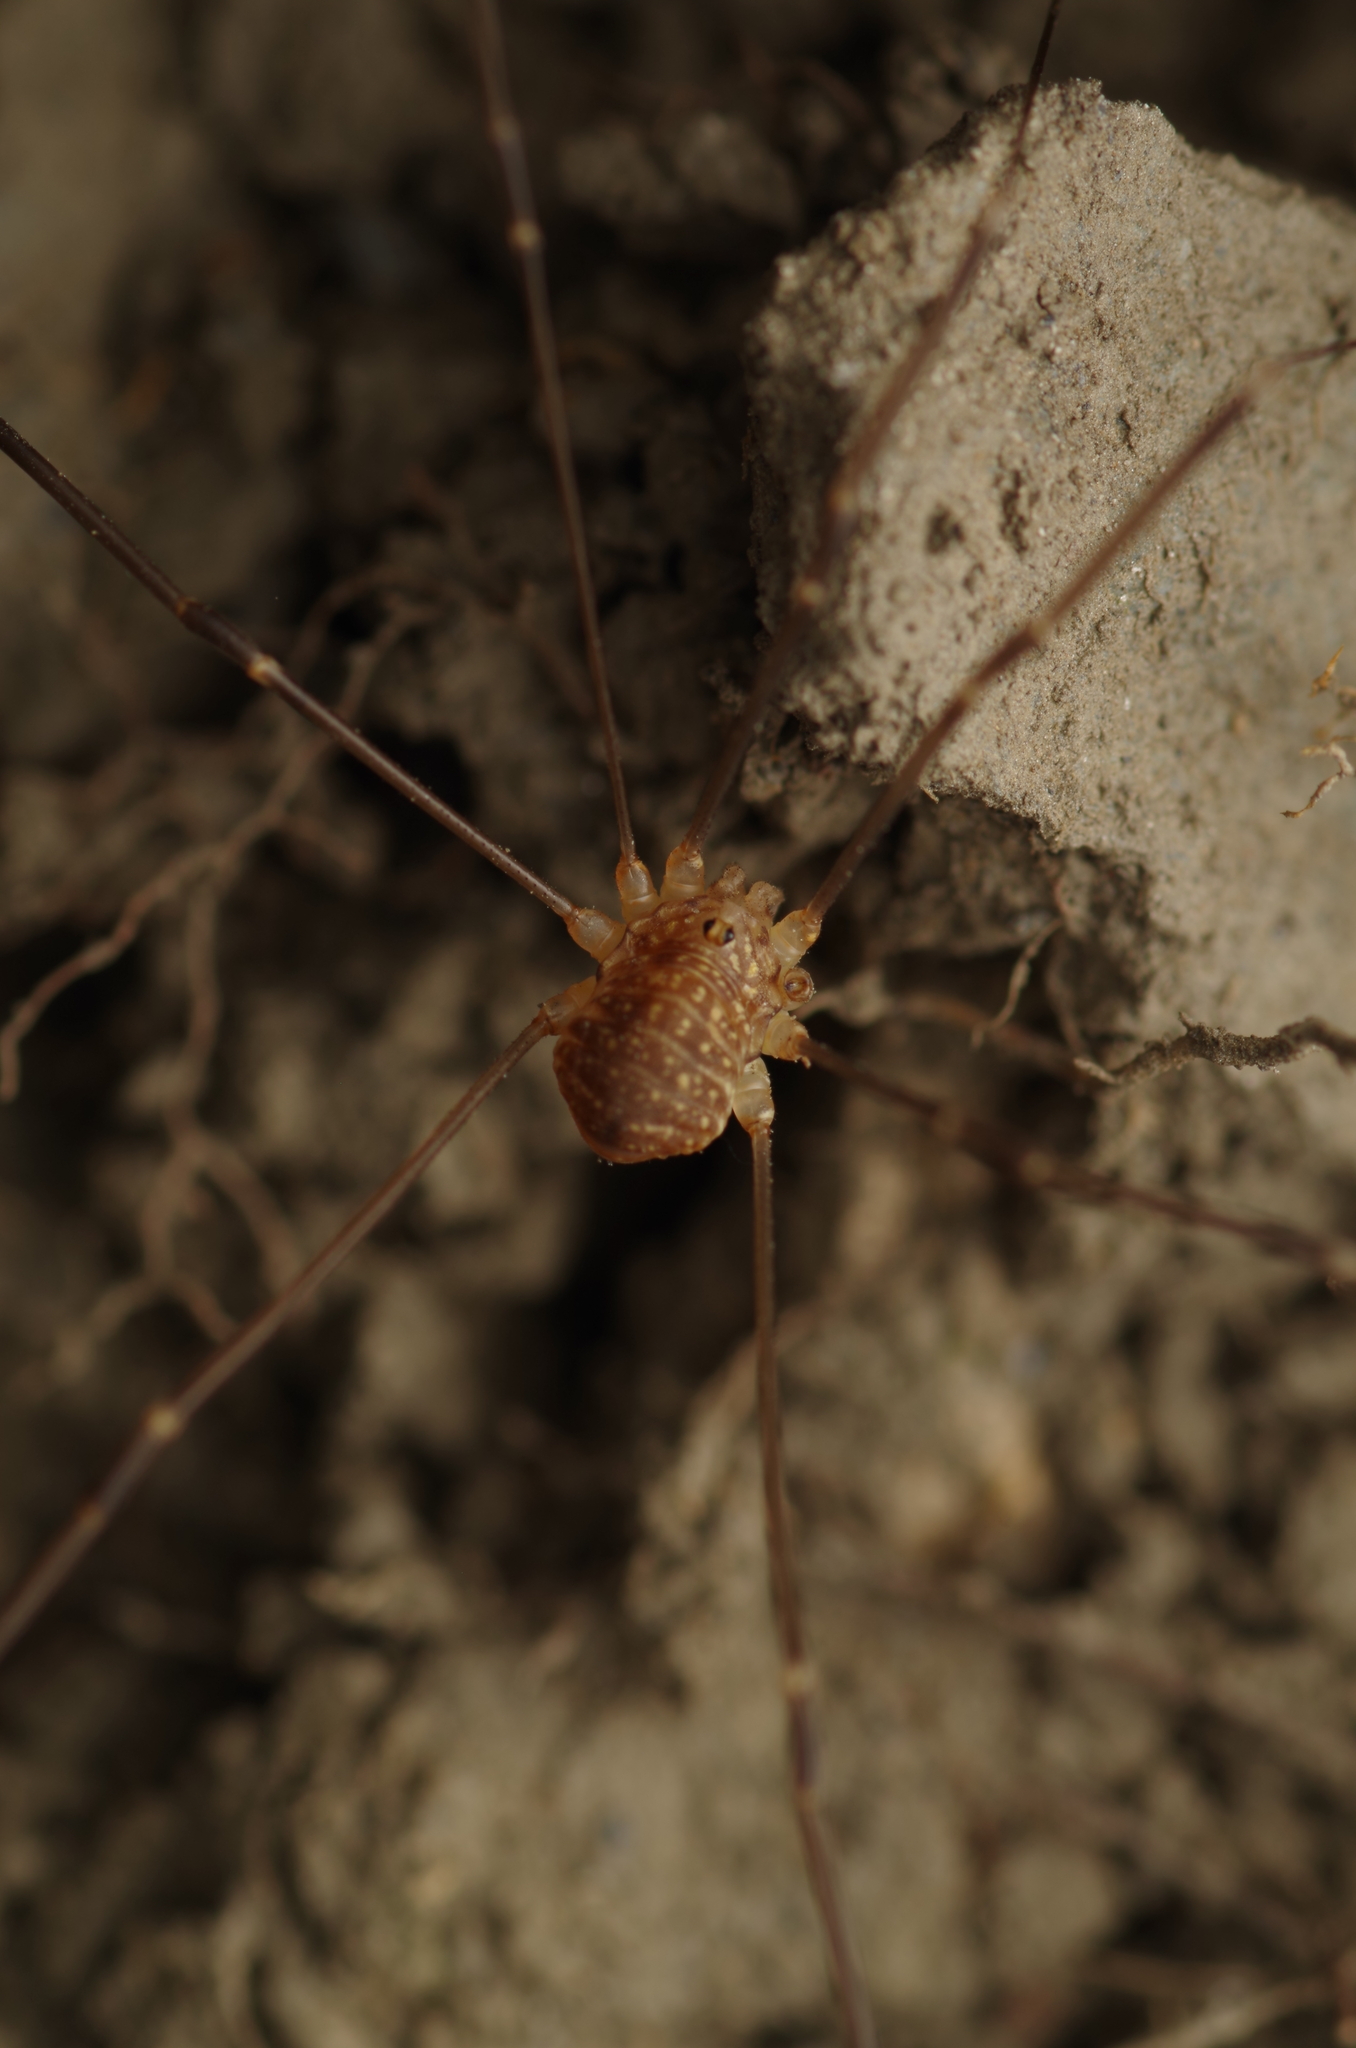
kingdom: Animalia
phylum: Arthropoda
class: Arachnida
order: Opiliones
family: Sclerosomatidae
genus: Nelima
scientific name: Nelima gothica
